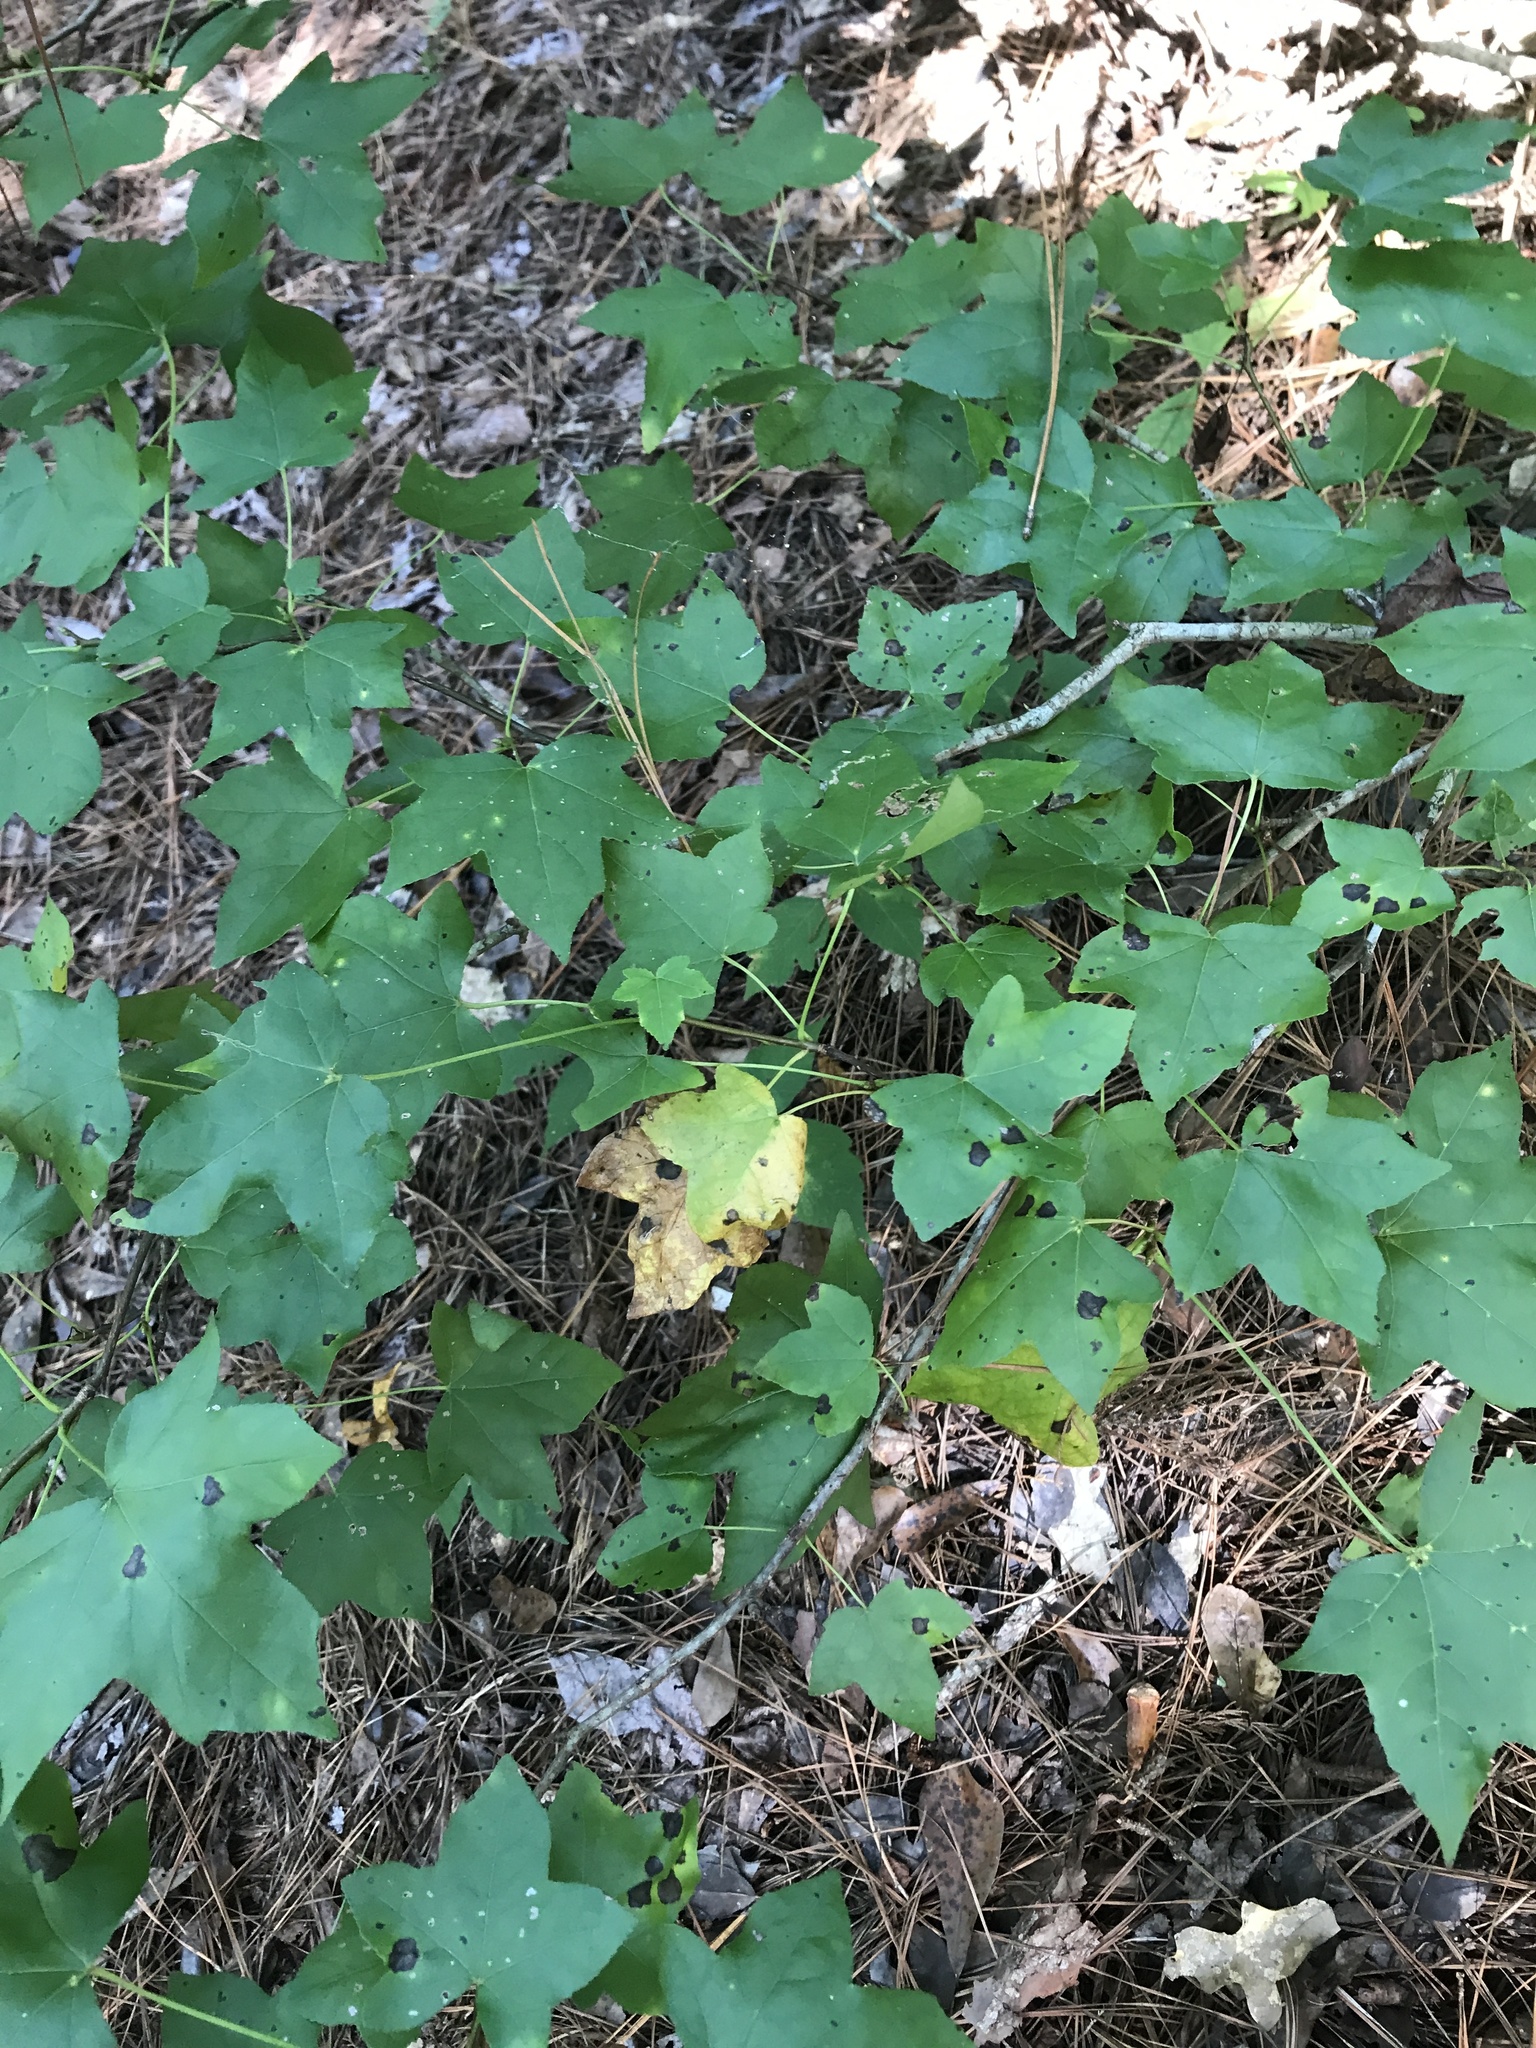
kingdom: Plantae
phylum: Tracheophyta
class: Magnoliopsida
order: Sapindales
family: Sapindaceae
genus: Acer
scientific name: Acer floridanum
